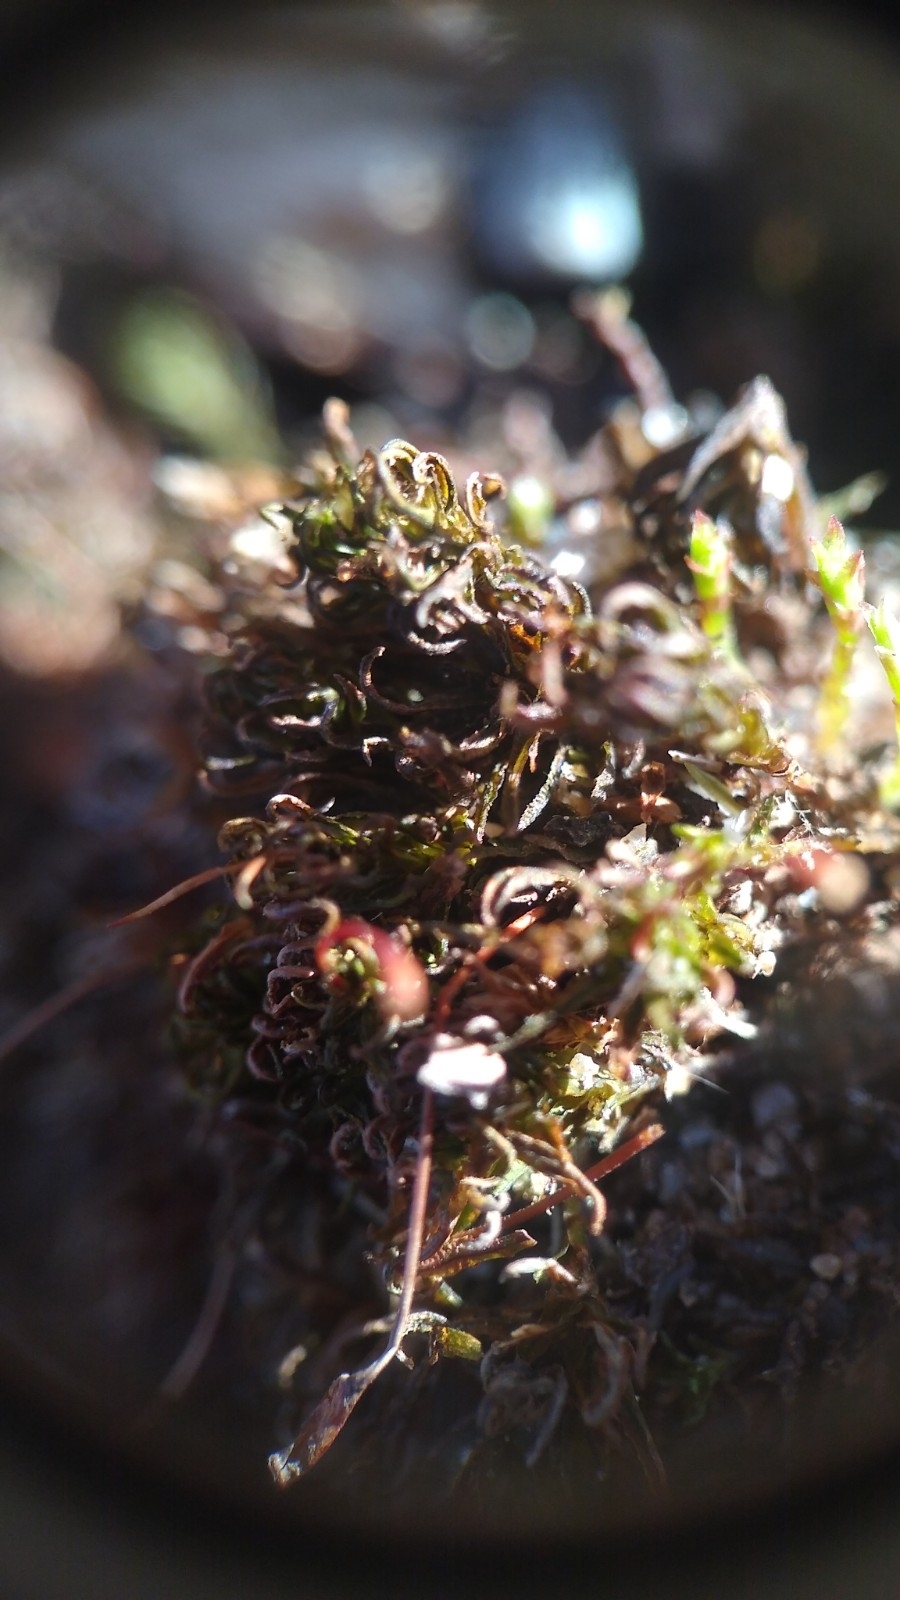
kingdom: Plantae
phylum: Bryophyta
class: Polytrichopsida
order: Polytrichales
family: Polytrichaceae
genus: Atrichum
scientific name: Atrichum angustatum
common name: Lesser smoothcap
